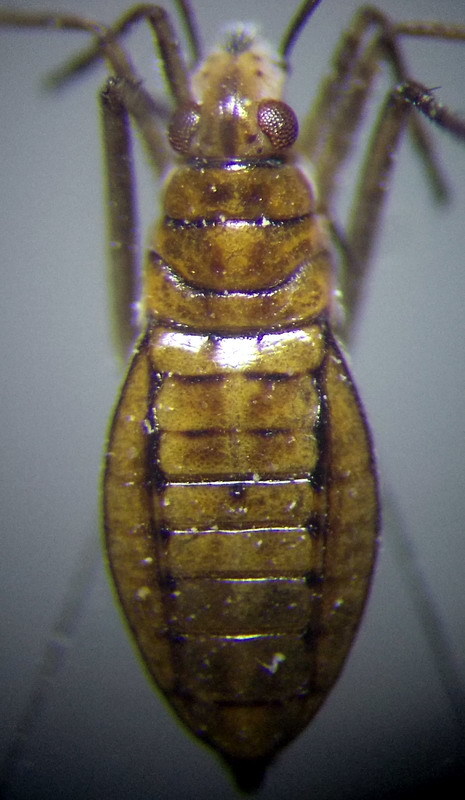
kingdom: Animalia
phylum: Arthropoda
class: Insecta
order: Hemiptera
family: Mesoveliidae
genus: Mesovelia
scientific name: Mesovelia furcata
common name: Pondweed bug
